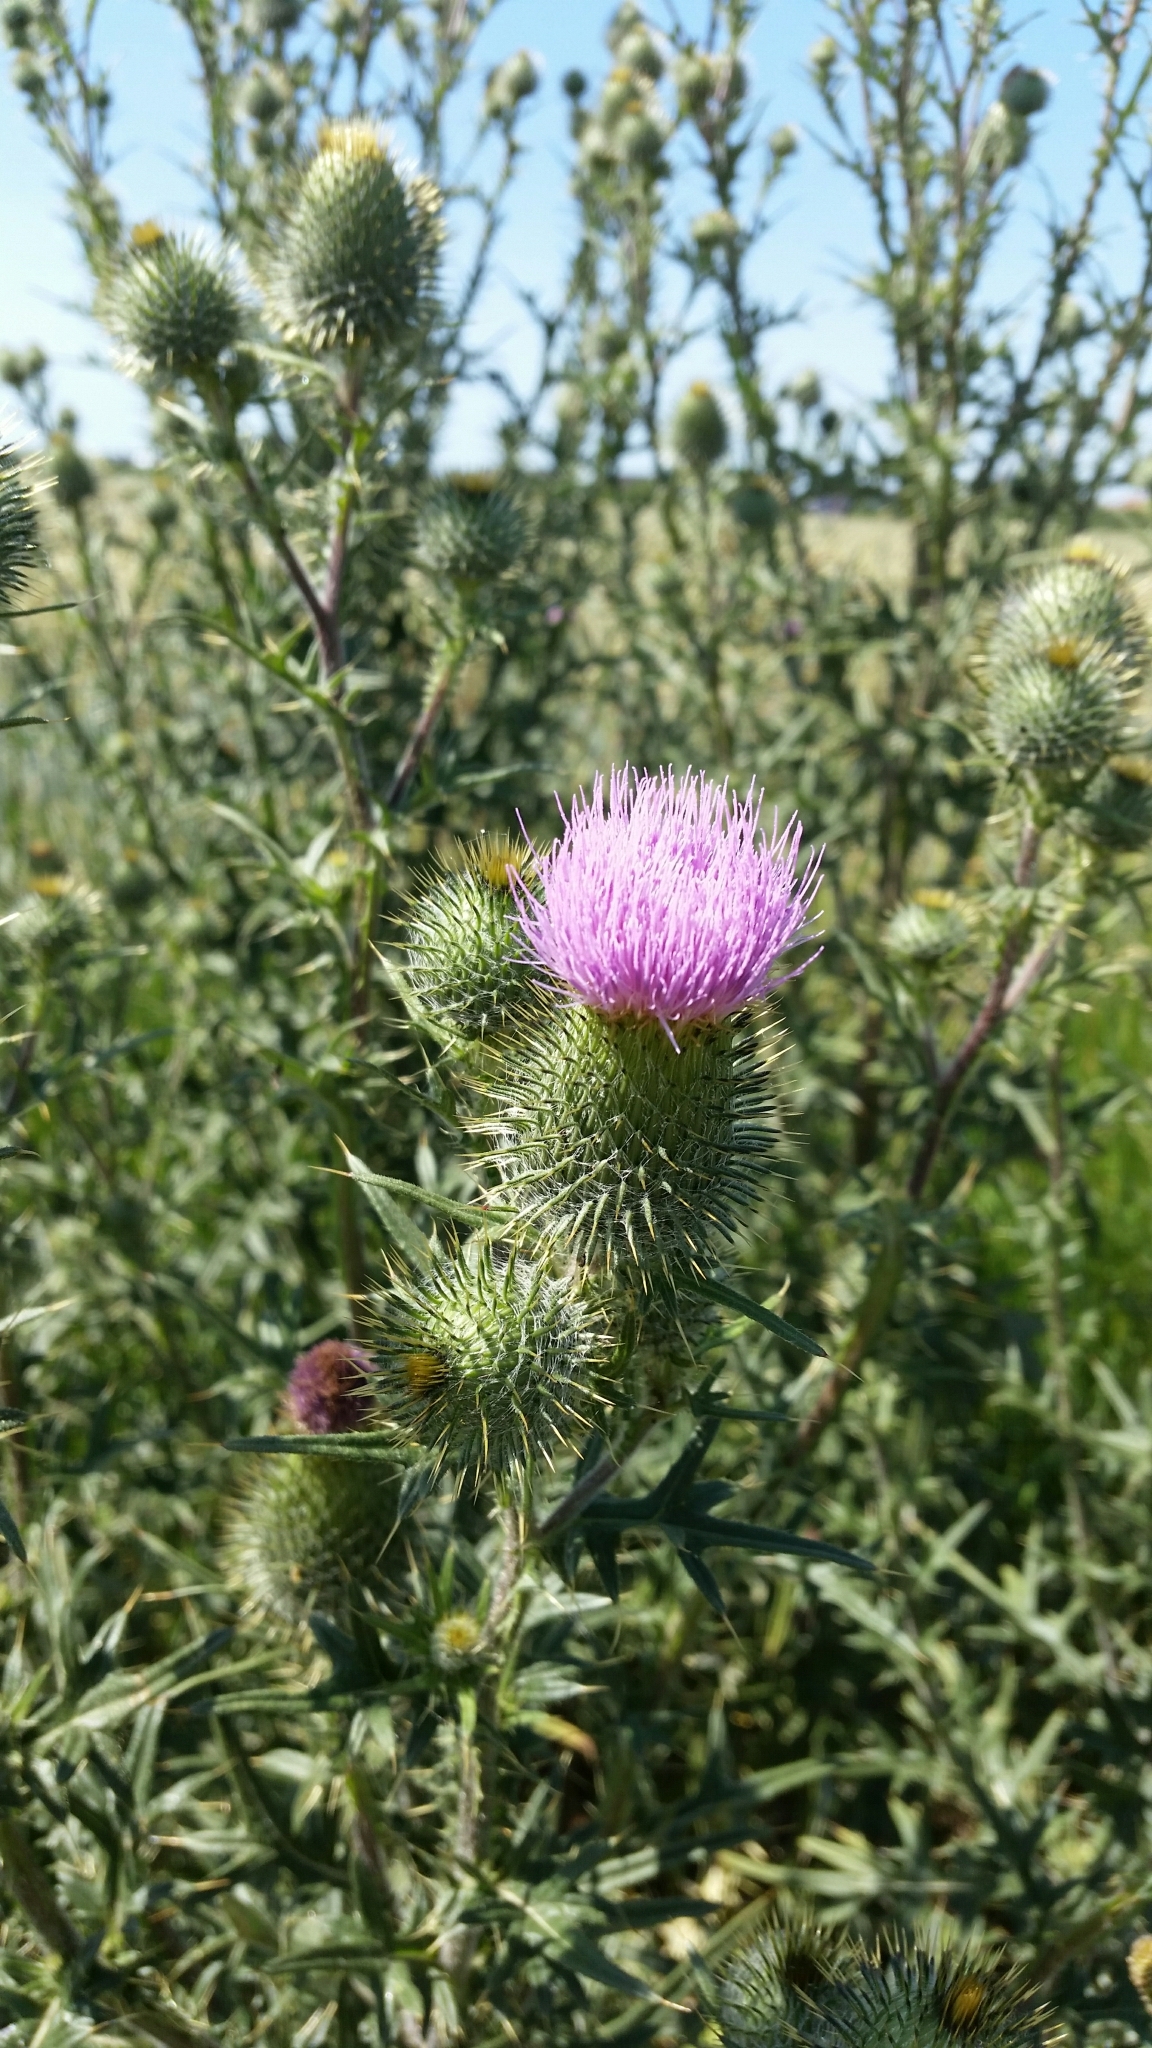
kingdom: Plantae
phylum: Tracheophyta
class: Magnoliopsida
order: Asterales
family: Asteraceae
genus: Cirsium
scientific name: Cirsium vulgare
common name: Bull thistle
